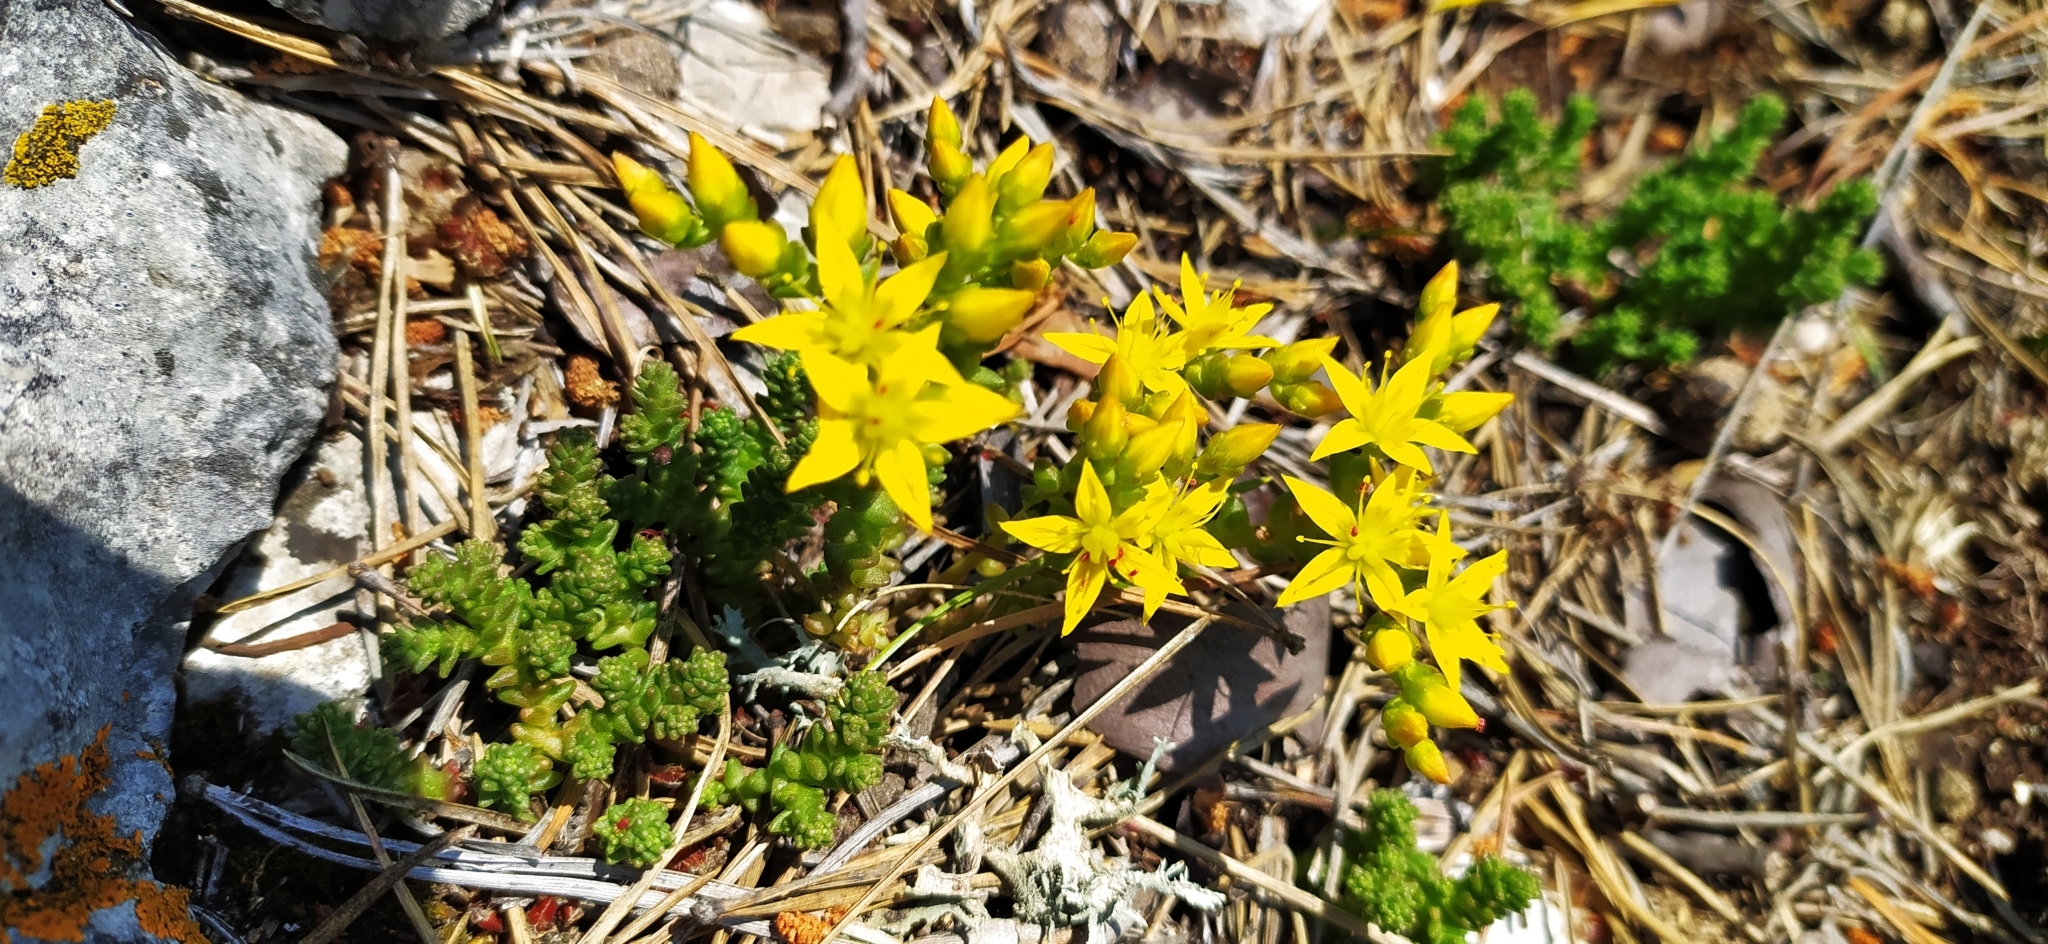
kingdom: Plantae
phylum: Tracheophyta
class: Magnoliopsida
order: Saxifragales
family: Crassulaceae
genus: Sedum
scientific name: Sedum acre
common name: Biting stonecrop
